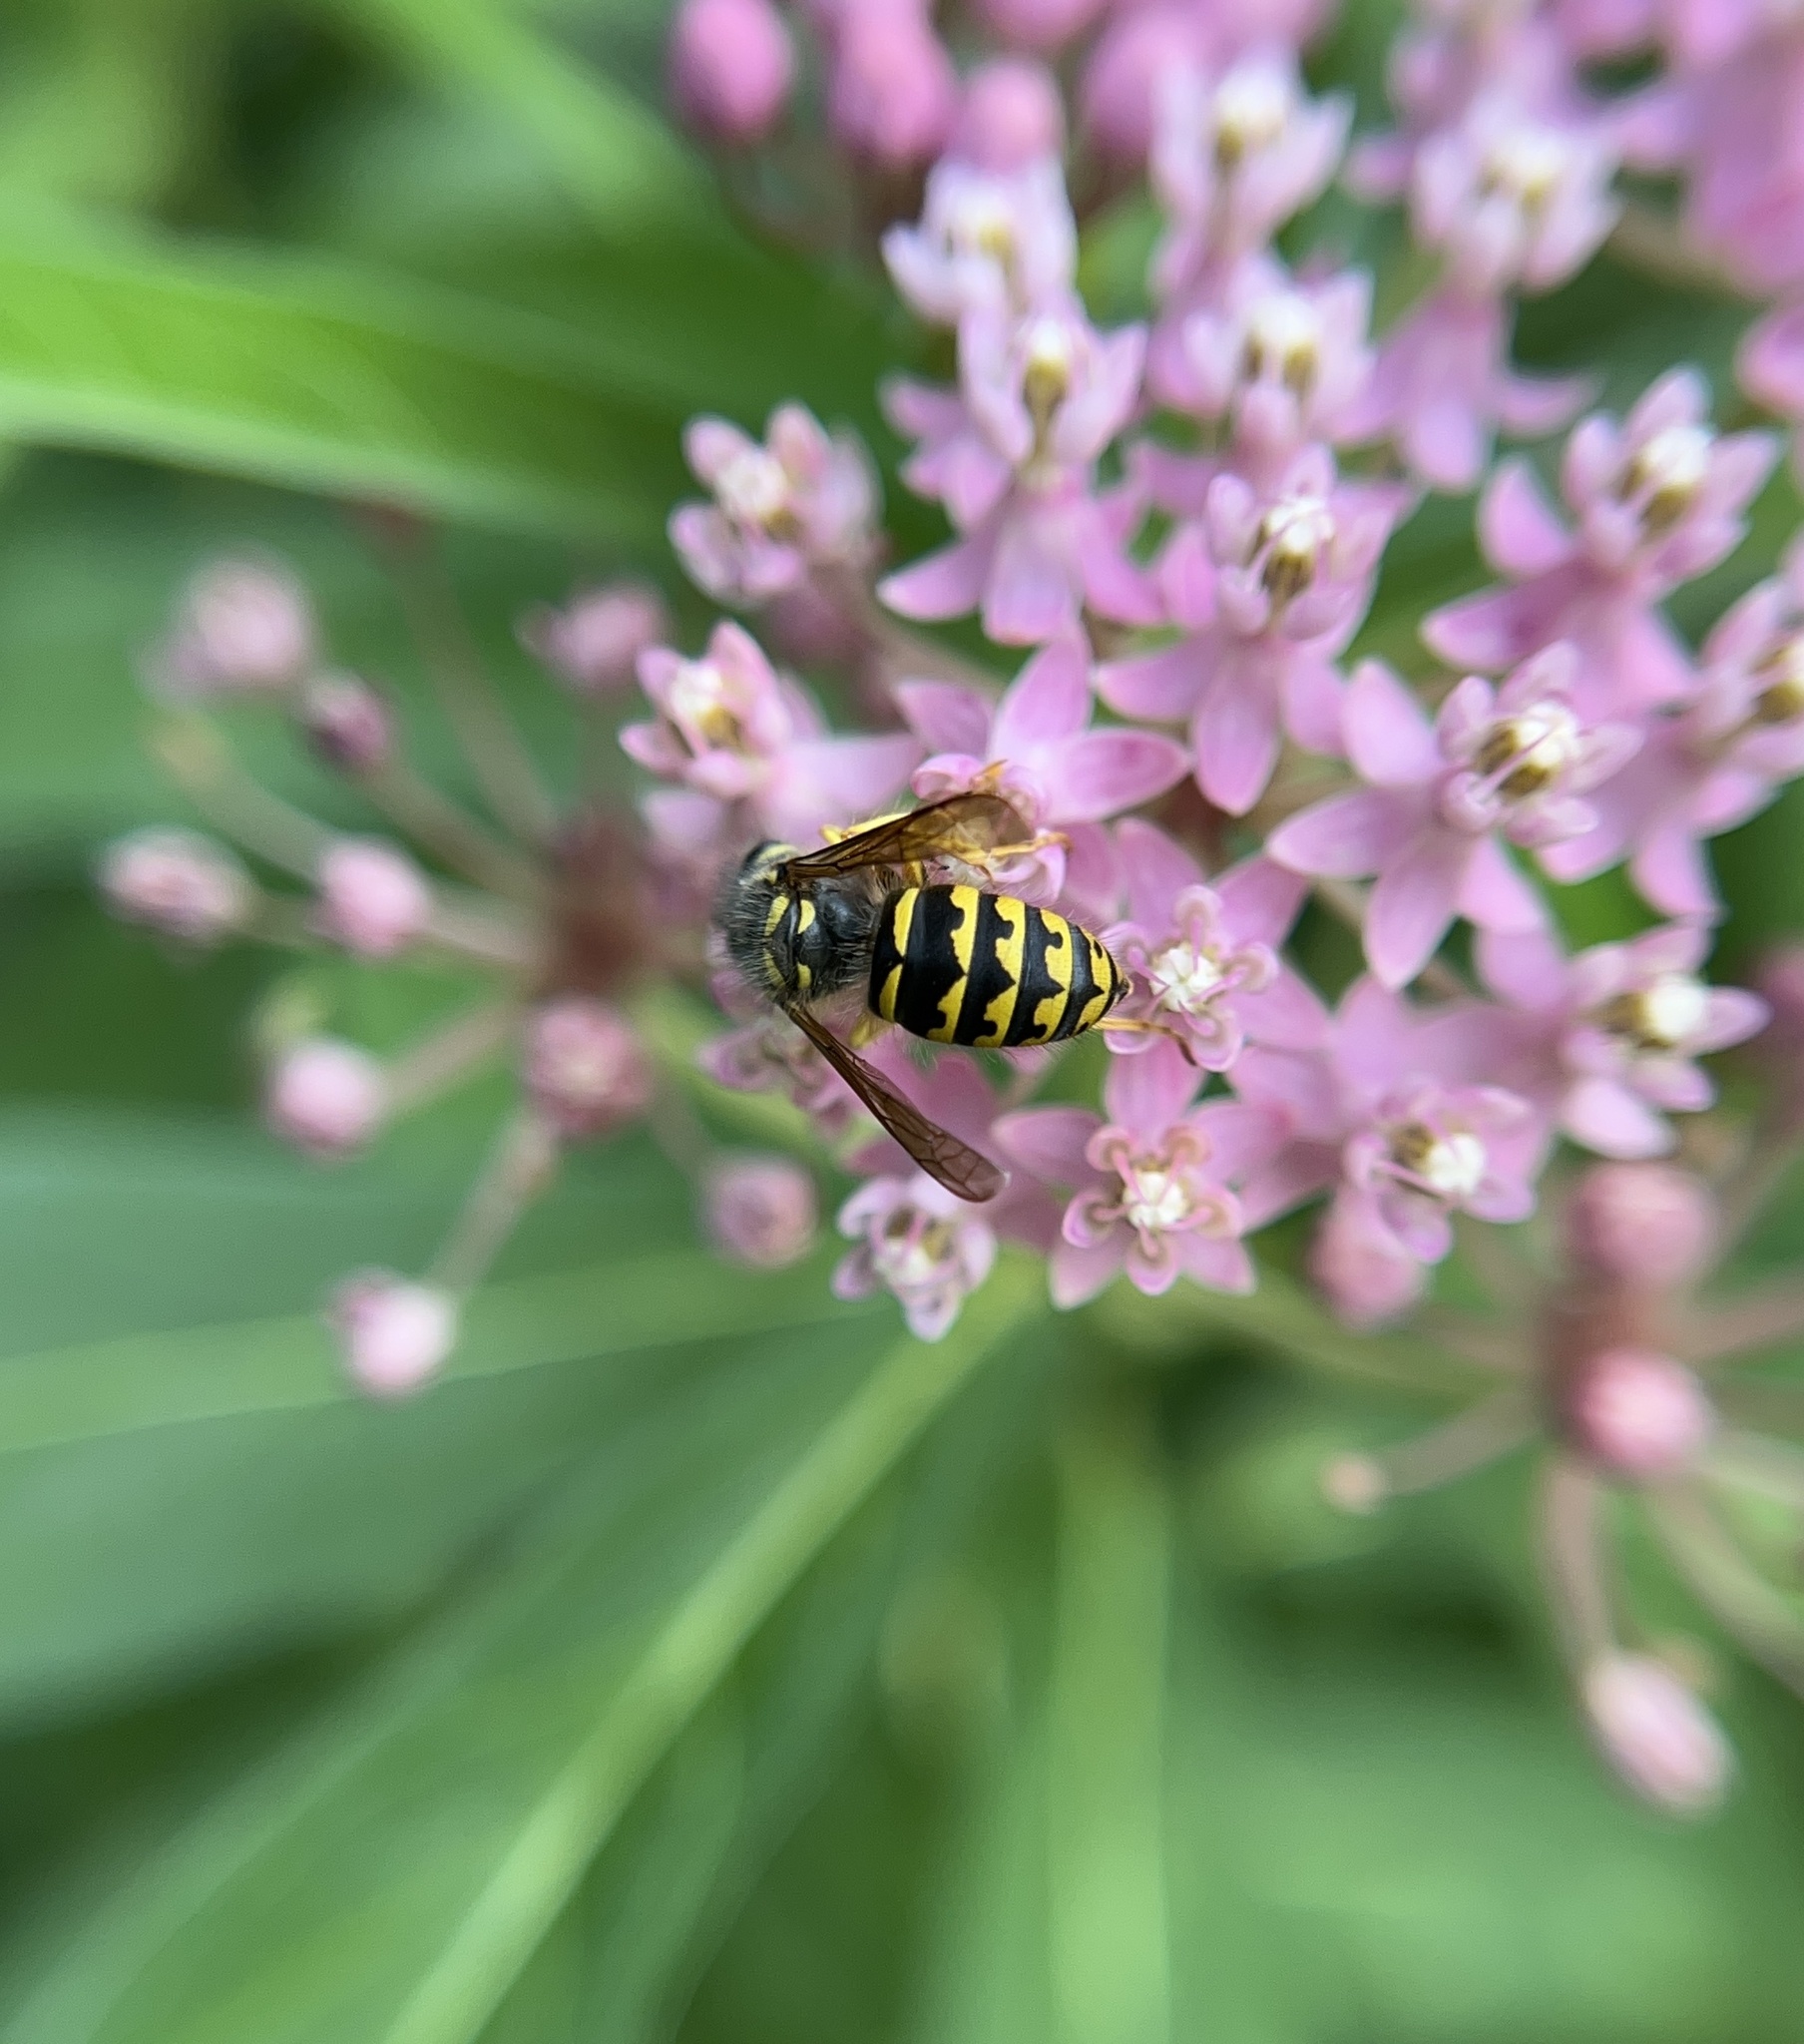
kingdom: Animalia
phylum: Arthropoda
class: Insecta
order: Hymenoptera
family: Vespidae
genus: Dolichovespula
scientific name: Dolichovespula arenaria
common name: Aerial yellowjacket
